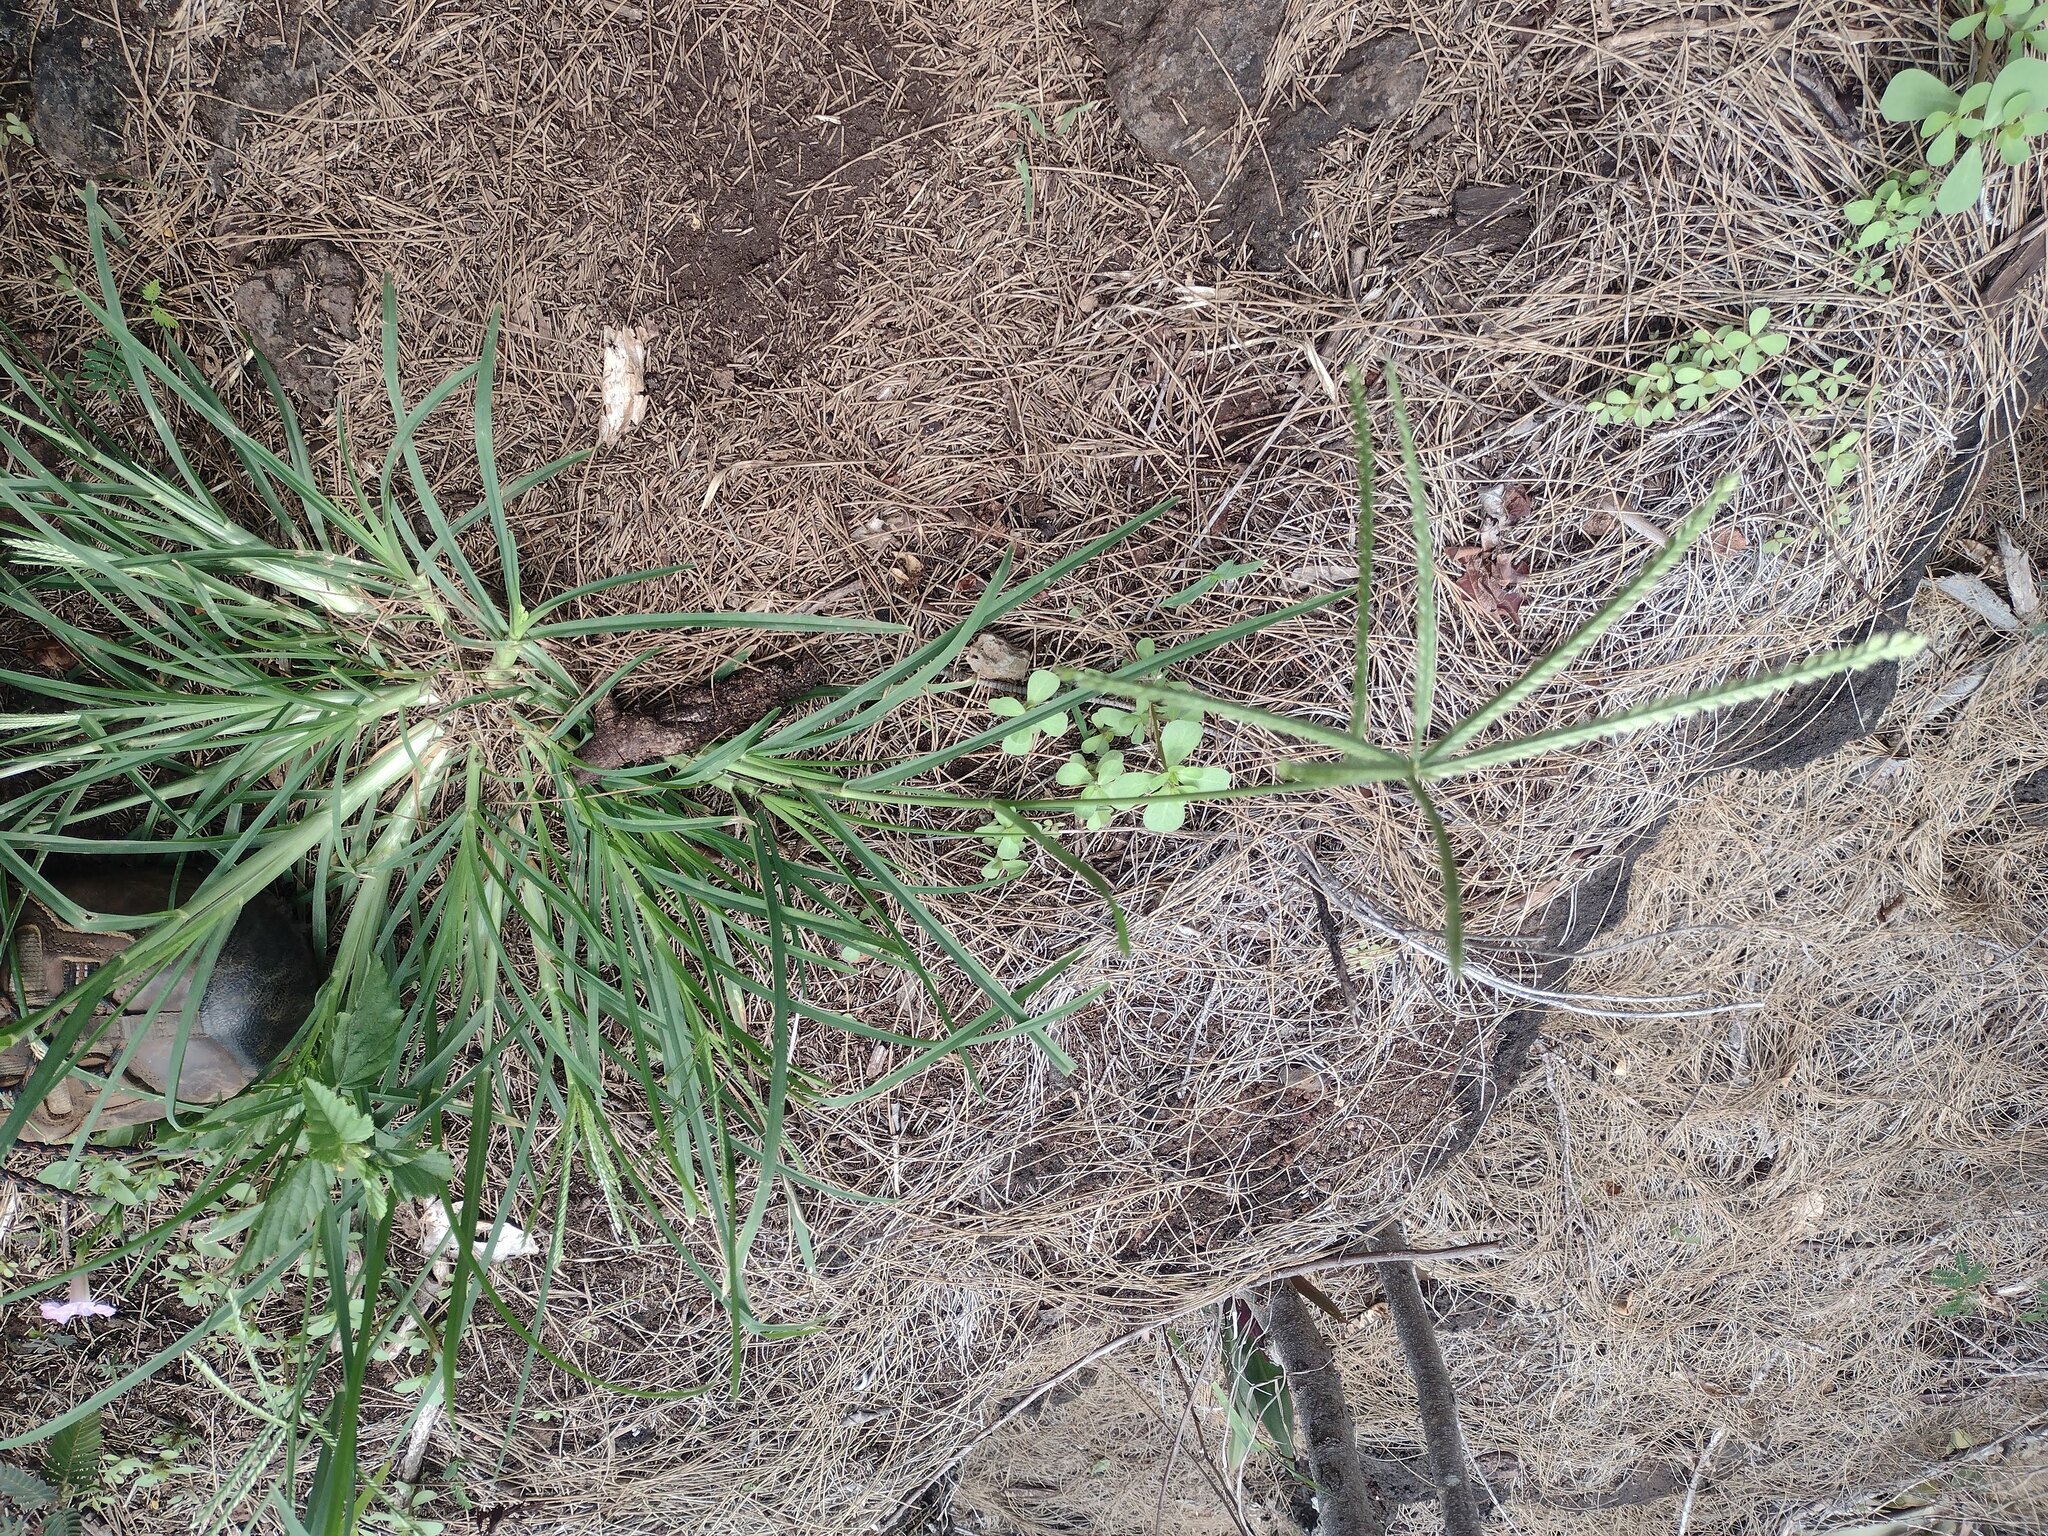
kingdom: Plantae
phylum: Tracheophyta
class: Liliopsida
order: Poales
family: Poaceae
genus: Eleusine
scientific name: Eleusine indica
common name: Yard-grass
